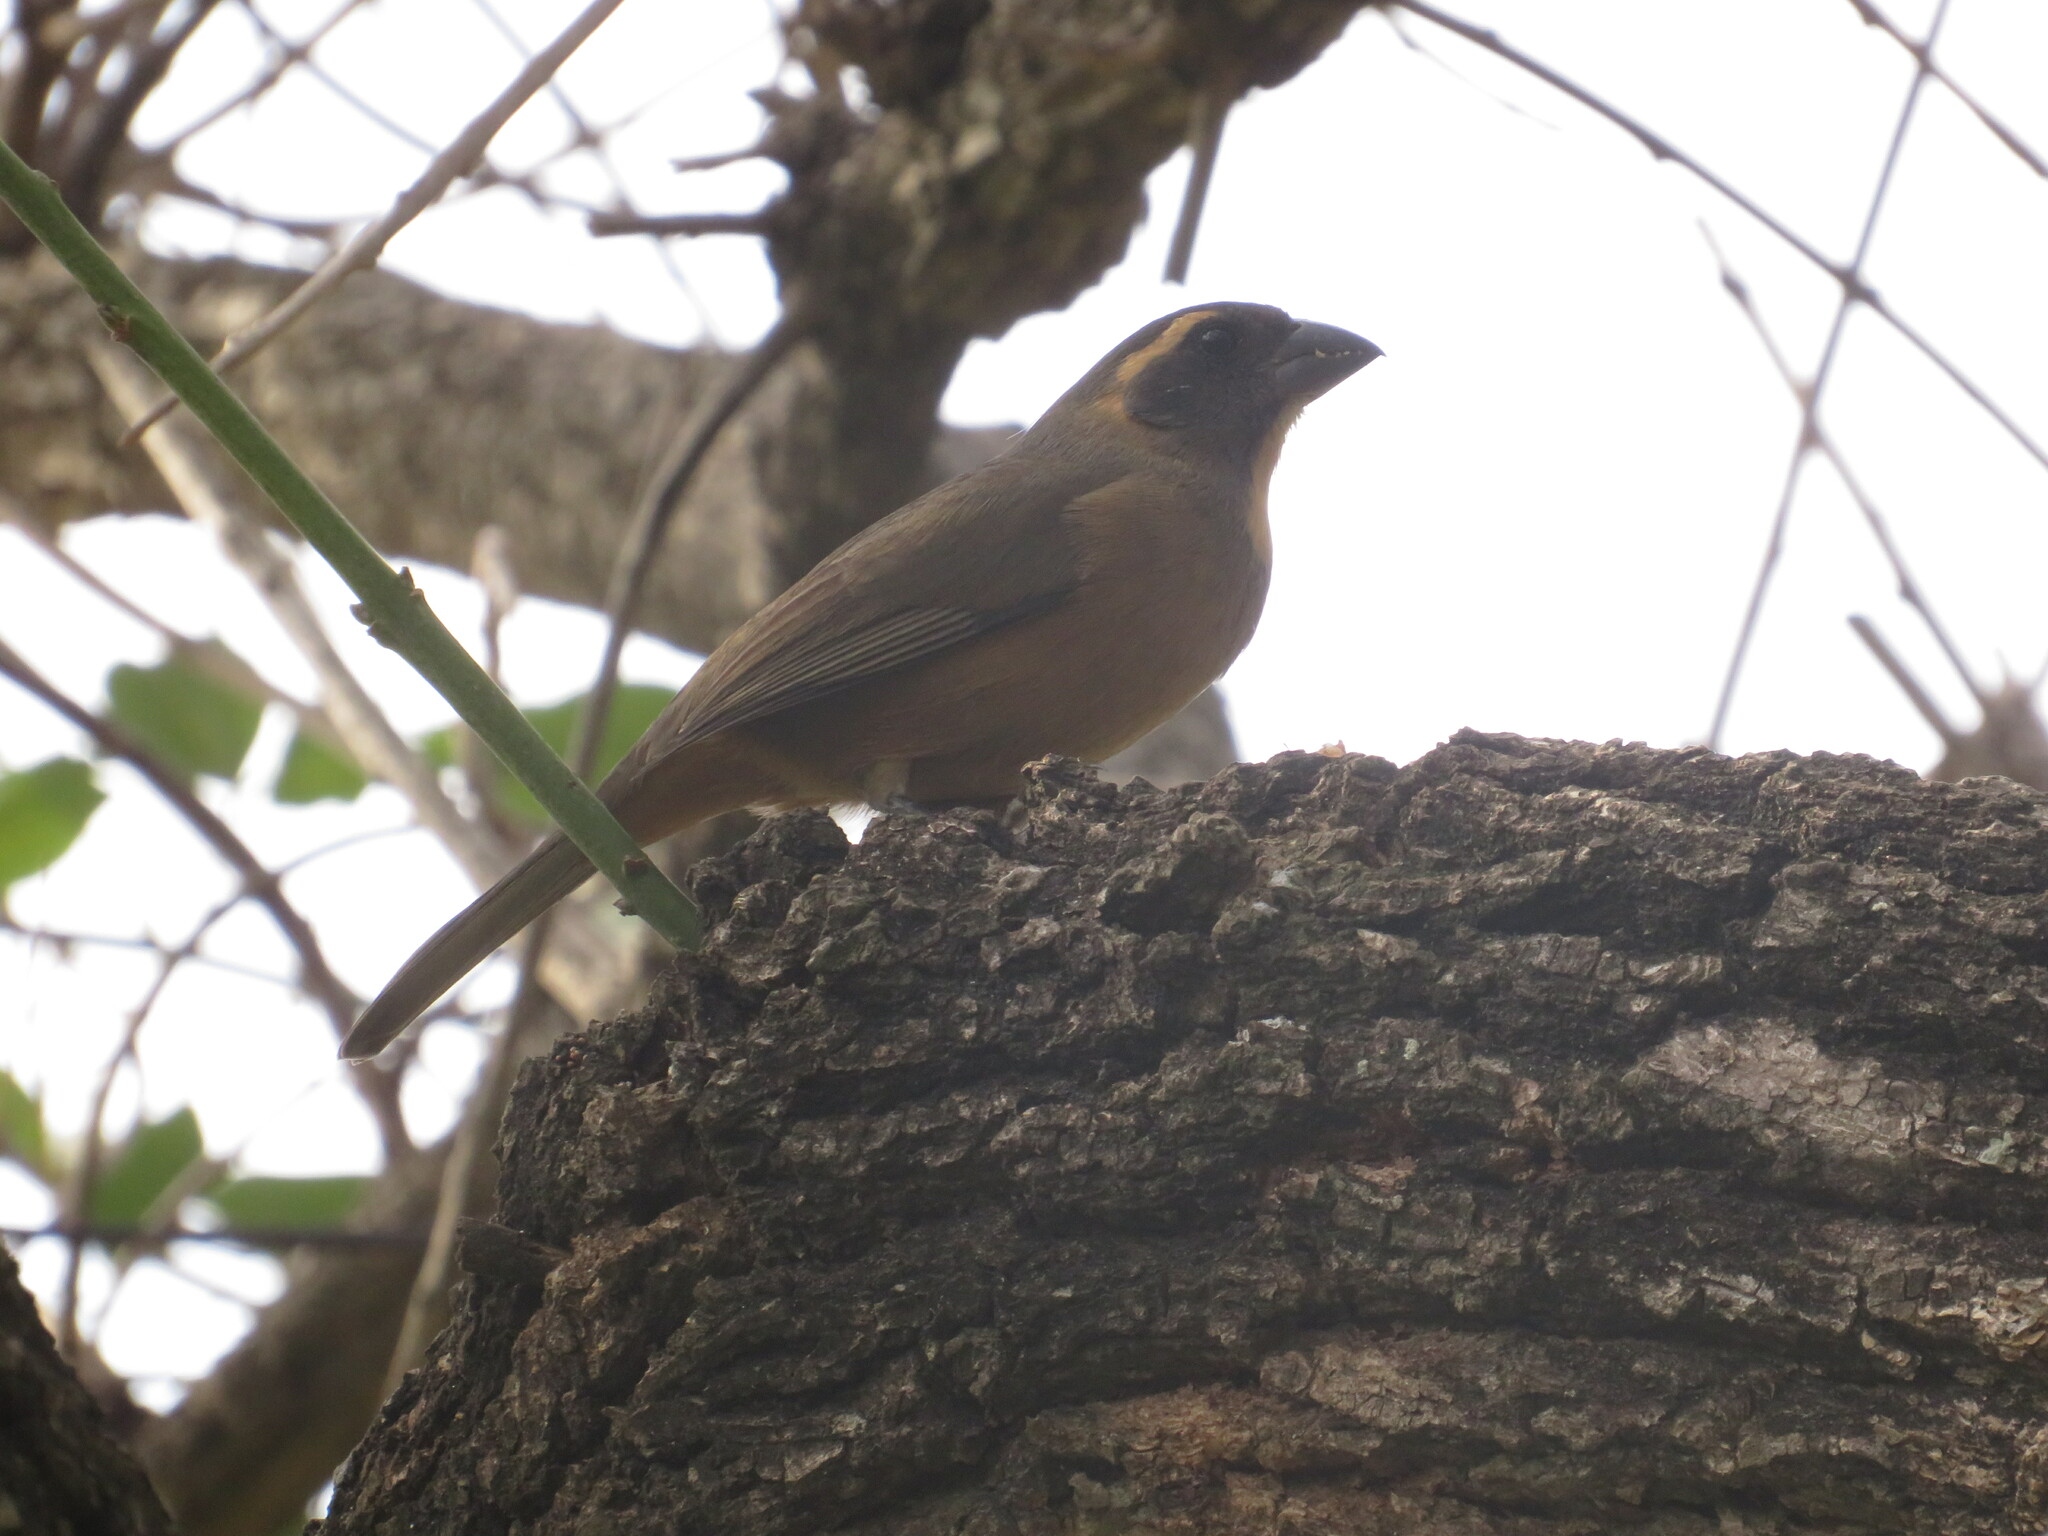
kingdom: Animalia
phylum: Chordata
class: Aves
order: Passeriformes
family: Thraupidae
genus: Saltator
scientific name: Saltator aurantiirostris
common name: Golden-billed saltator
